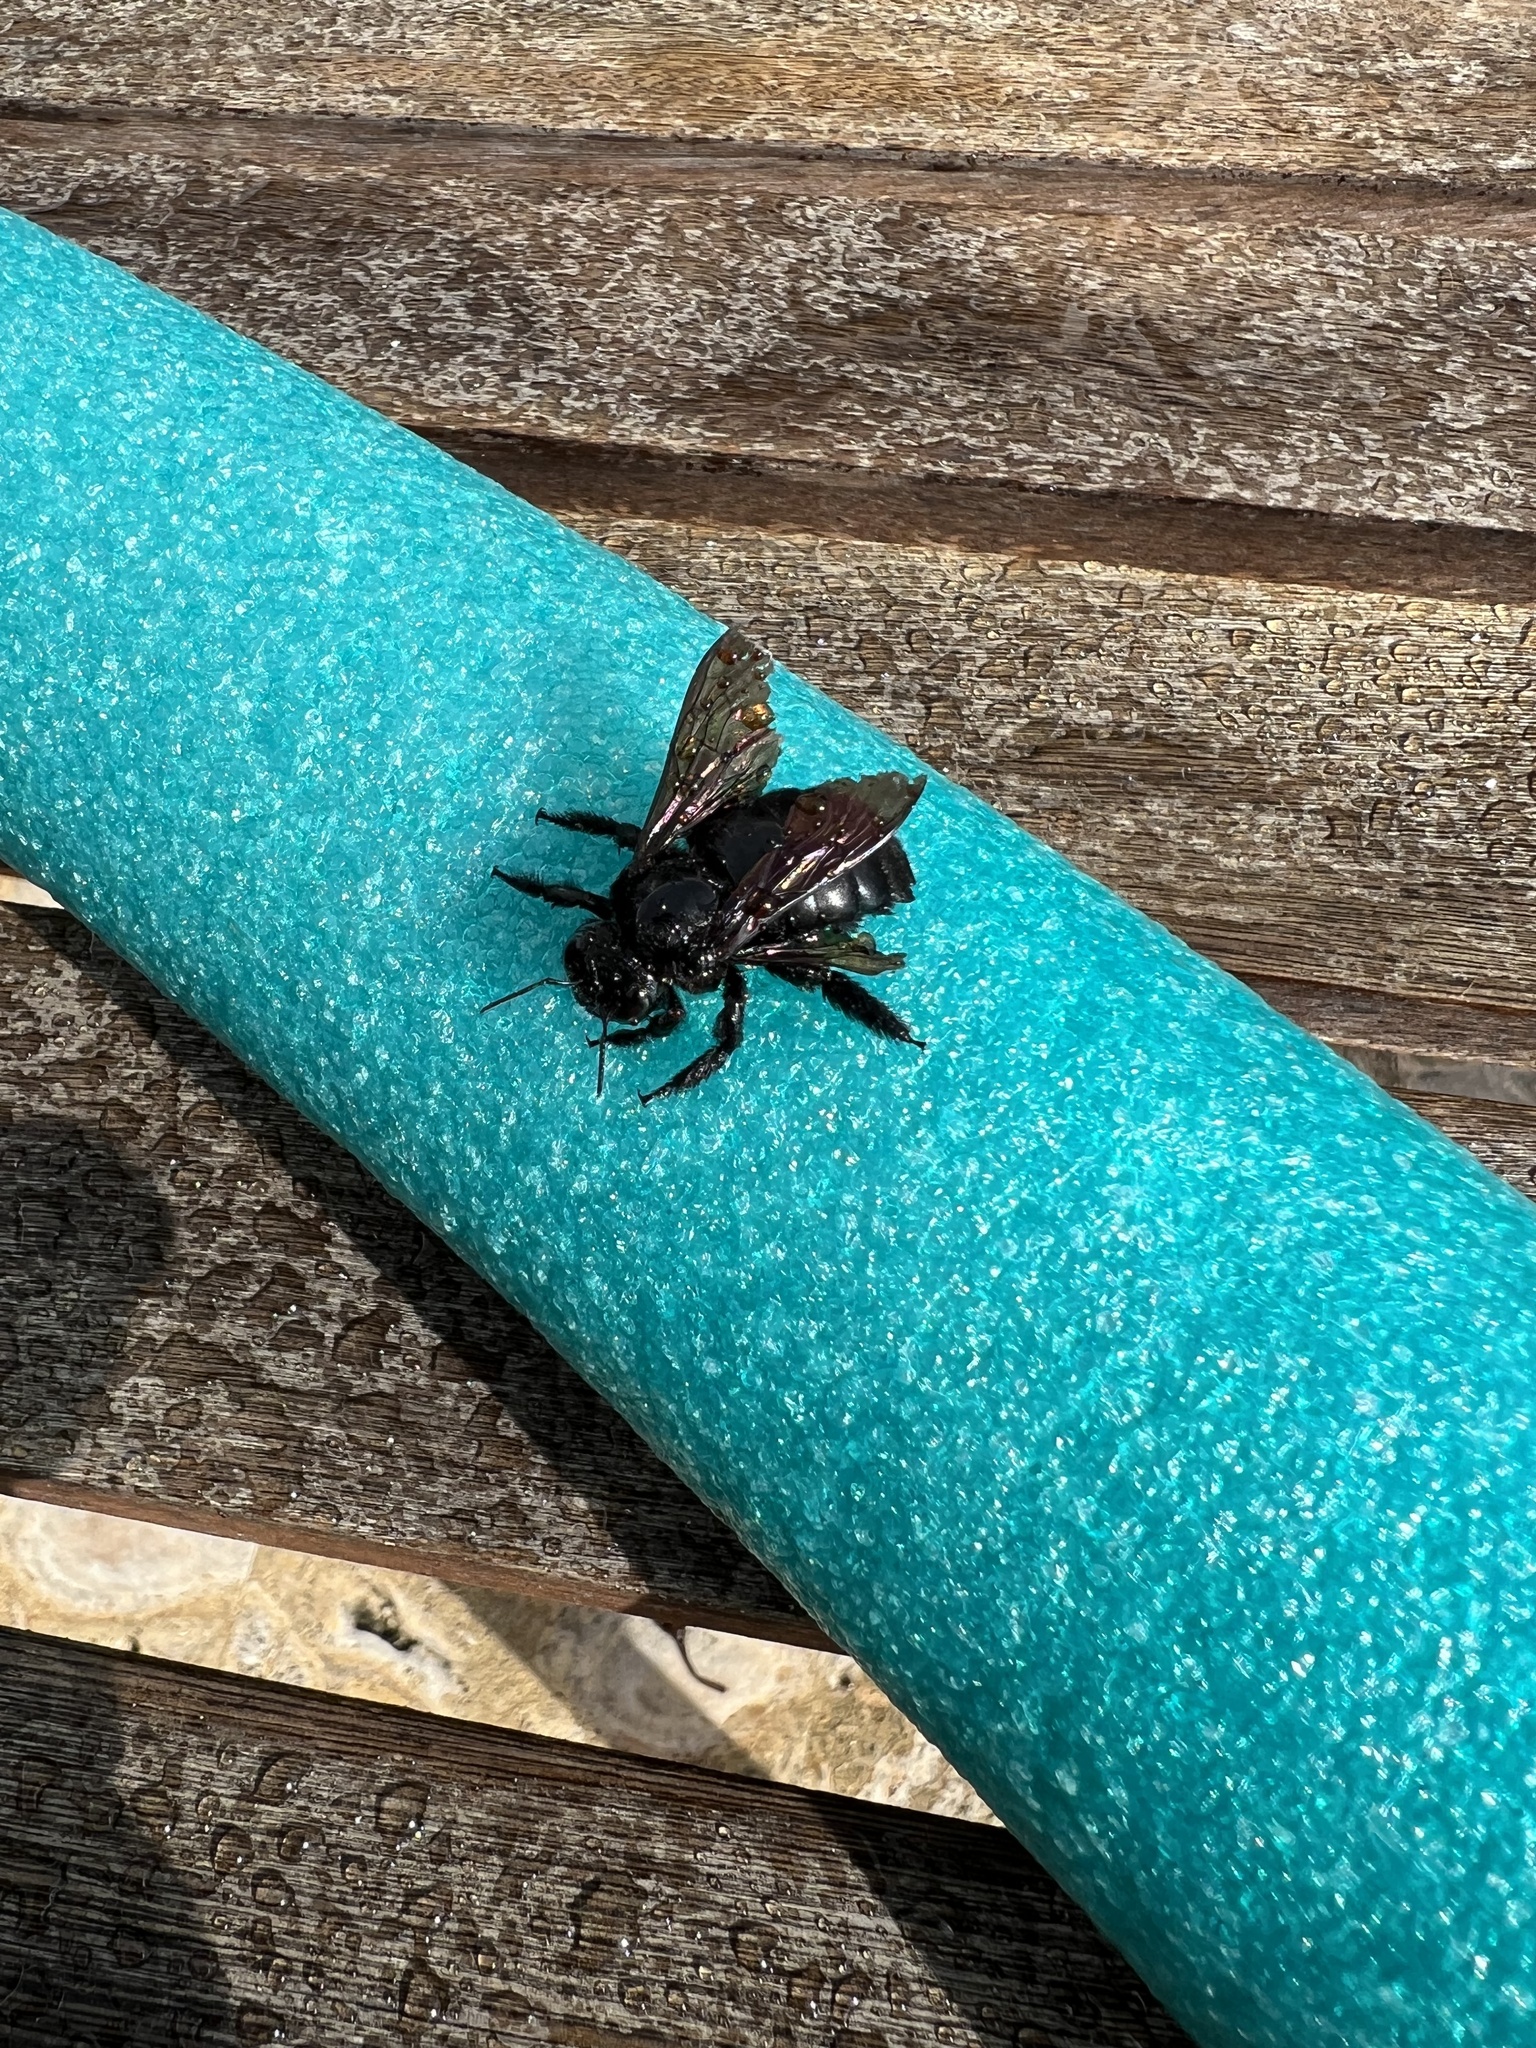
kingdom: Animalia
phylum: Arthropoda
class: Insecta
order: Hymenoptera
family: Apidae
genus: Xylocopa
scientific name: Xylocopa mordax
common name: Antillean carpenter bee
